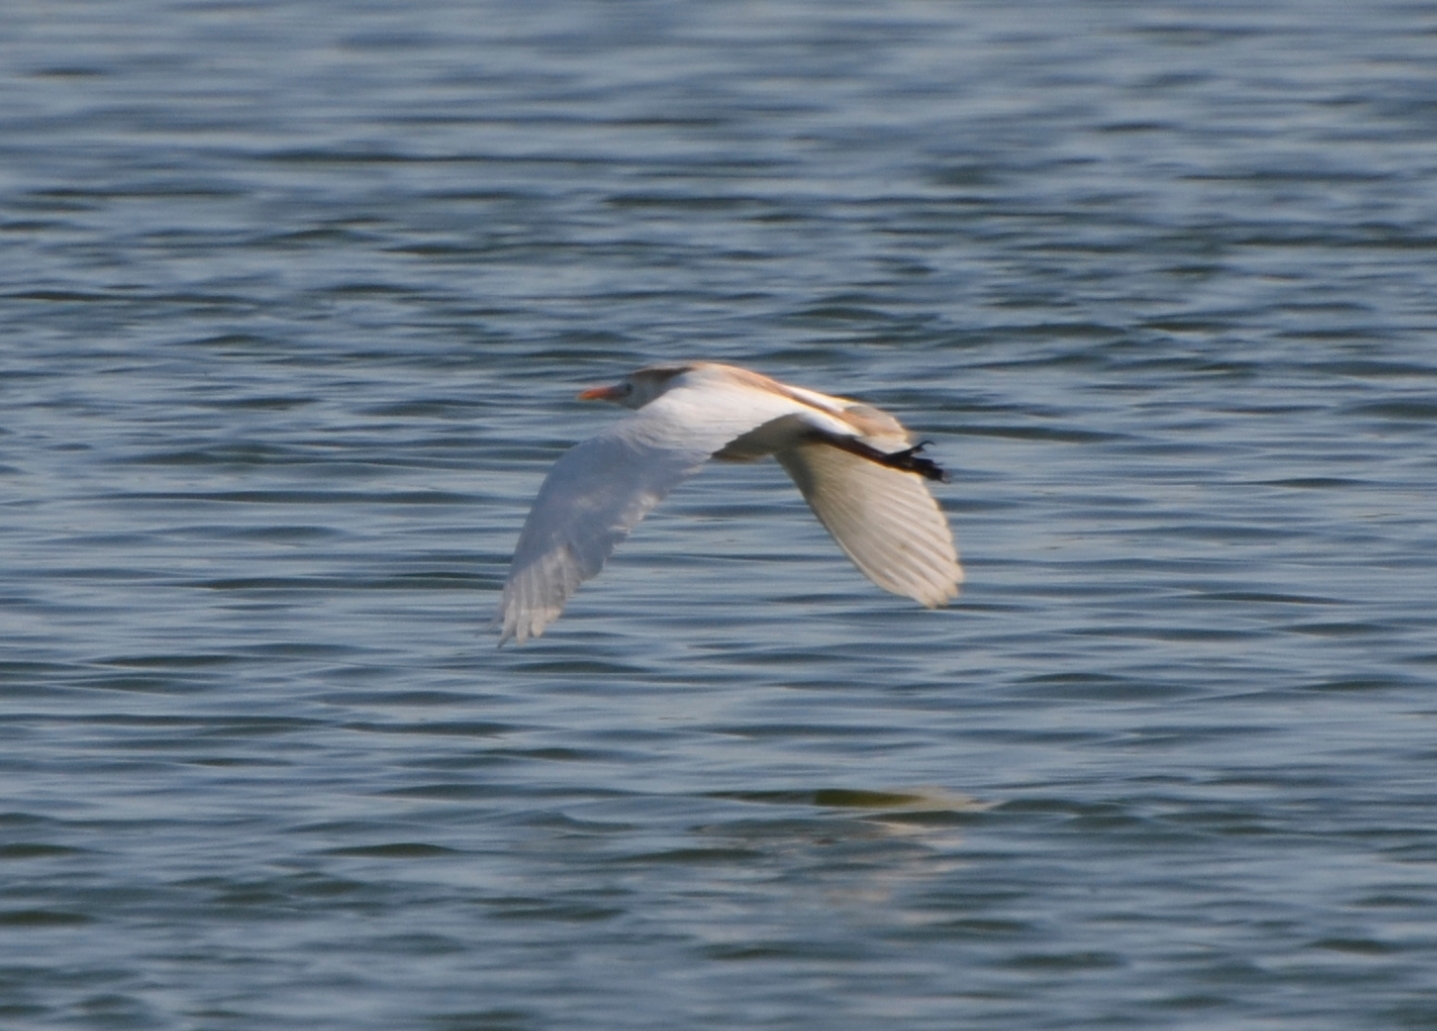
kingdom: Animalia
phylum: Chordata
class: Aves
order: Pelecaniformes
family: Ardeidae
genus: Bubulcus
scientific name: Bubulcus ibis
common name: Cattle egret
